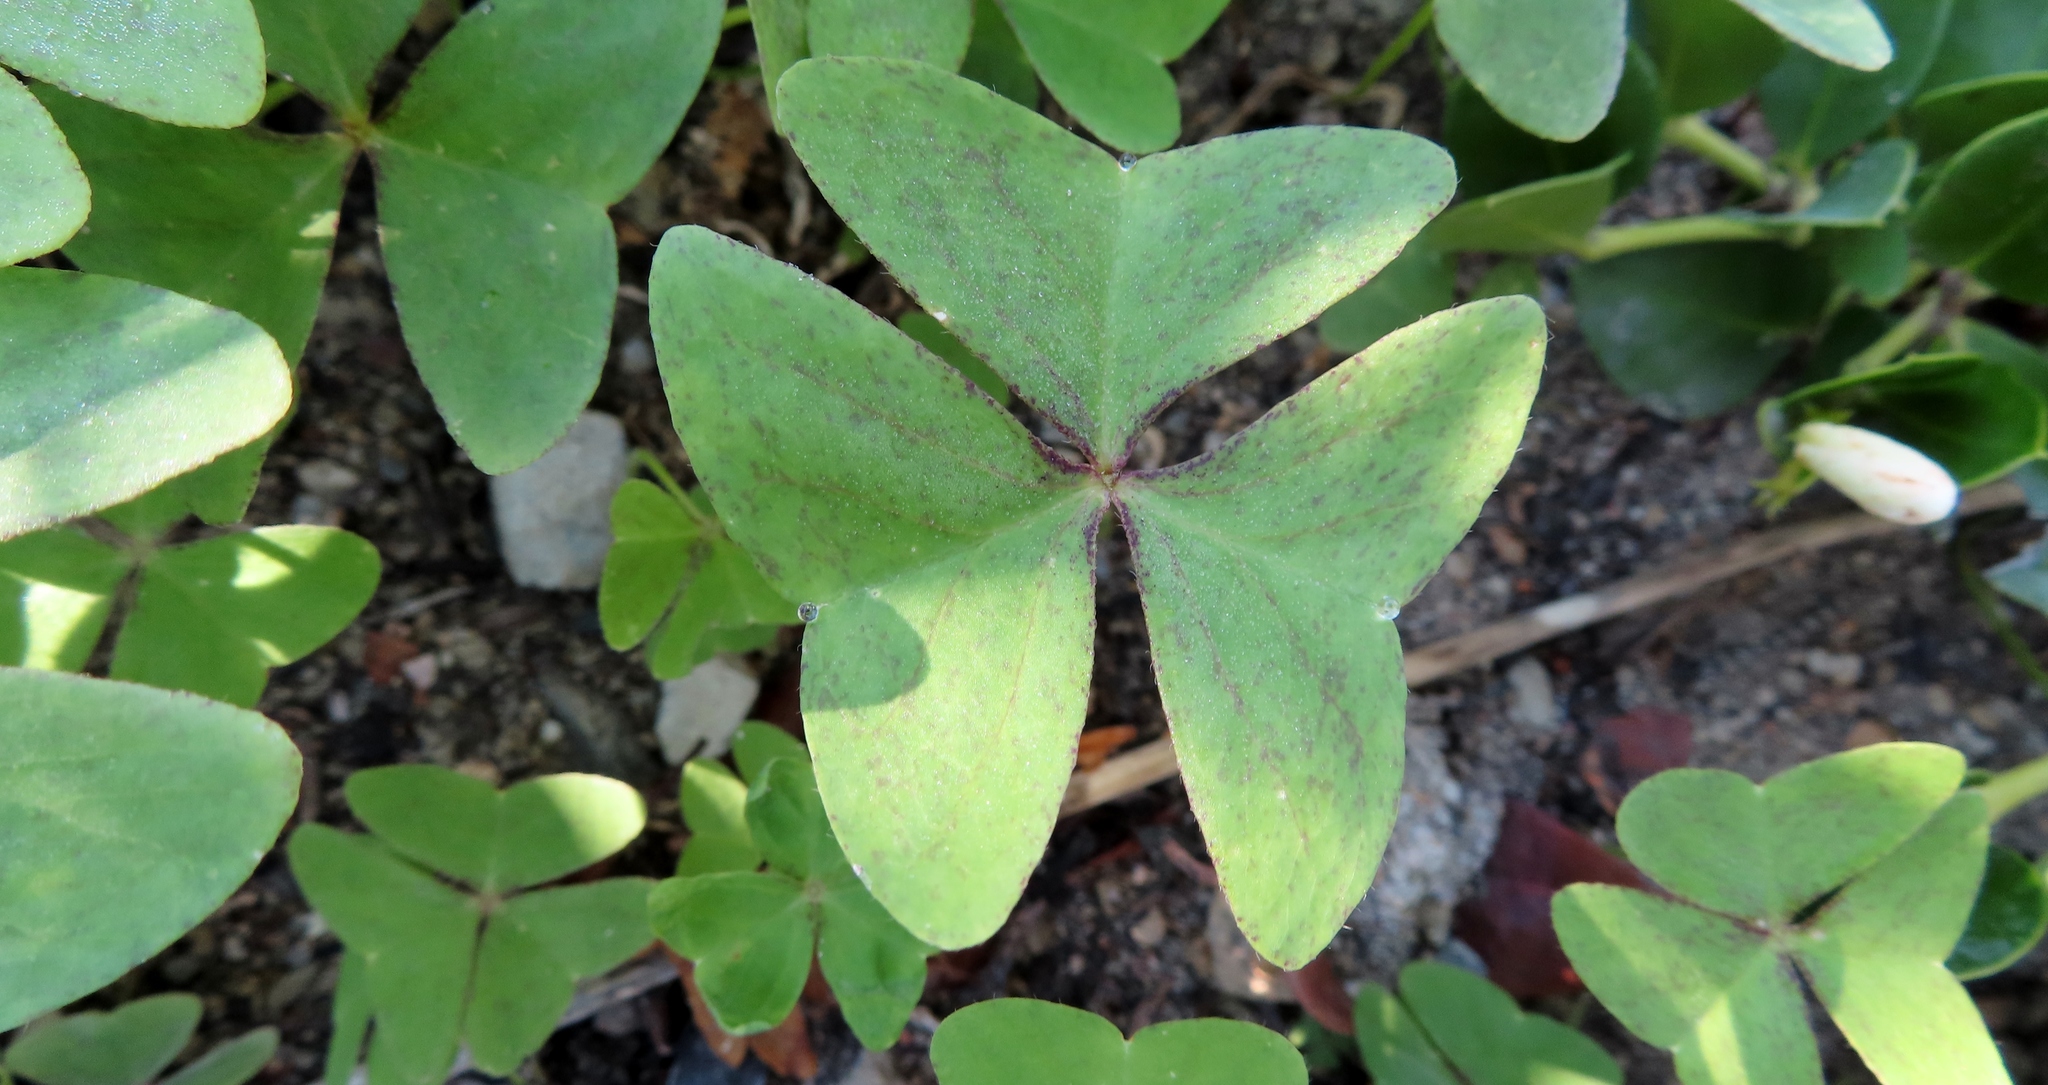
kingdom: Plantae
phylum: Tracheophyta
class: Magnoliopsida
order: Oxalidales
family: Oxalidaceae
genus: Oxalis
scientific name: Oxalis latifolia
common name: Garden pink-sorrel
